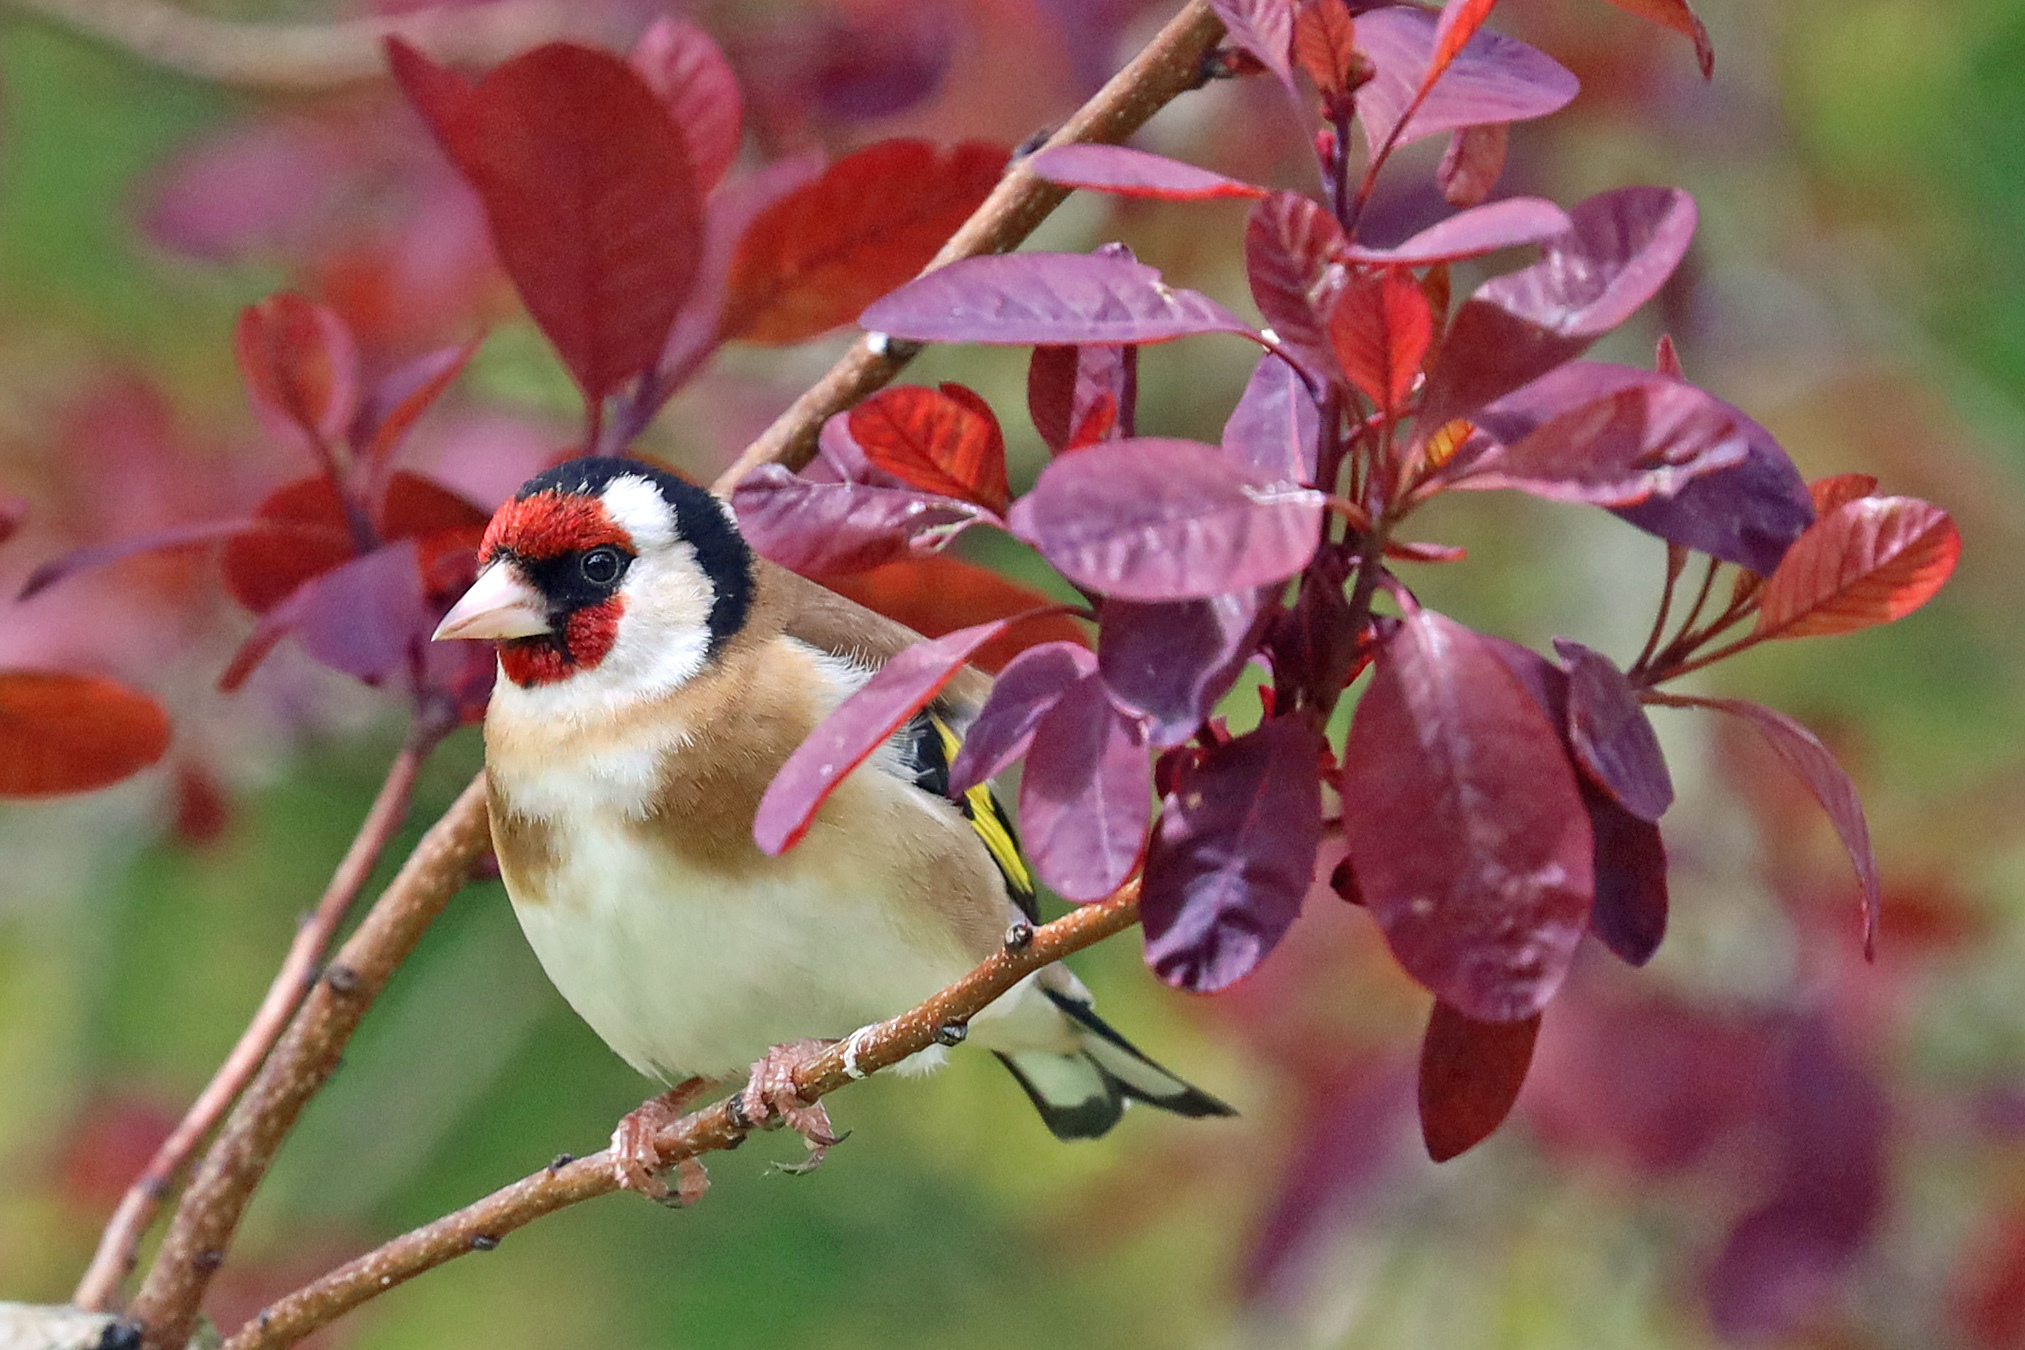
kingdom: Animalia
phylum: Chordata
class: Aves
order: Passeriformes
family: Fringillidae
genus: Carduelis
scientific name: Carduelis carduelis
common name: European goldfinch
